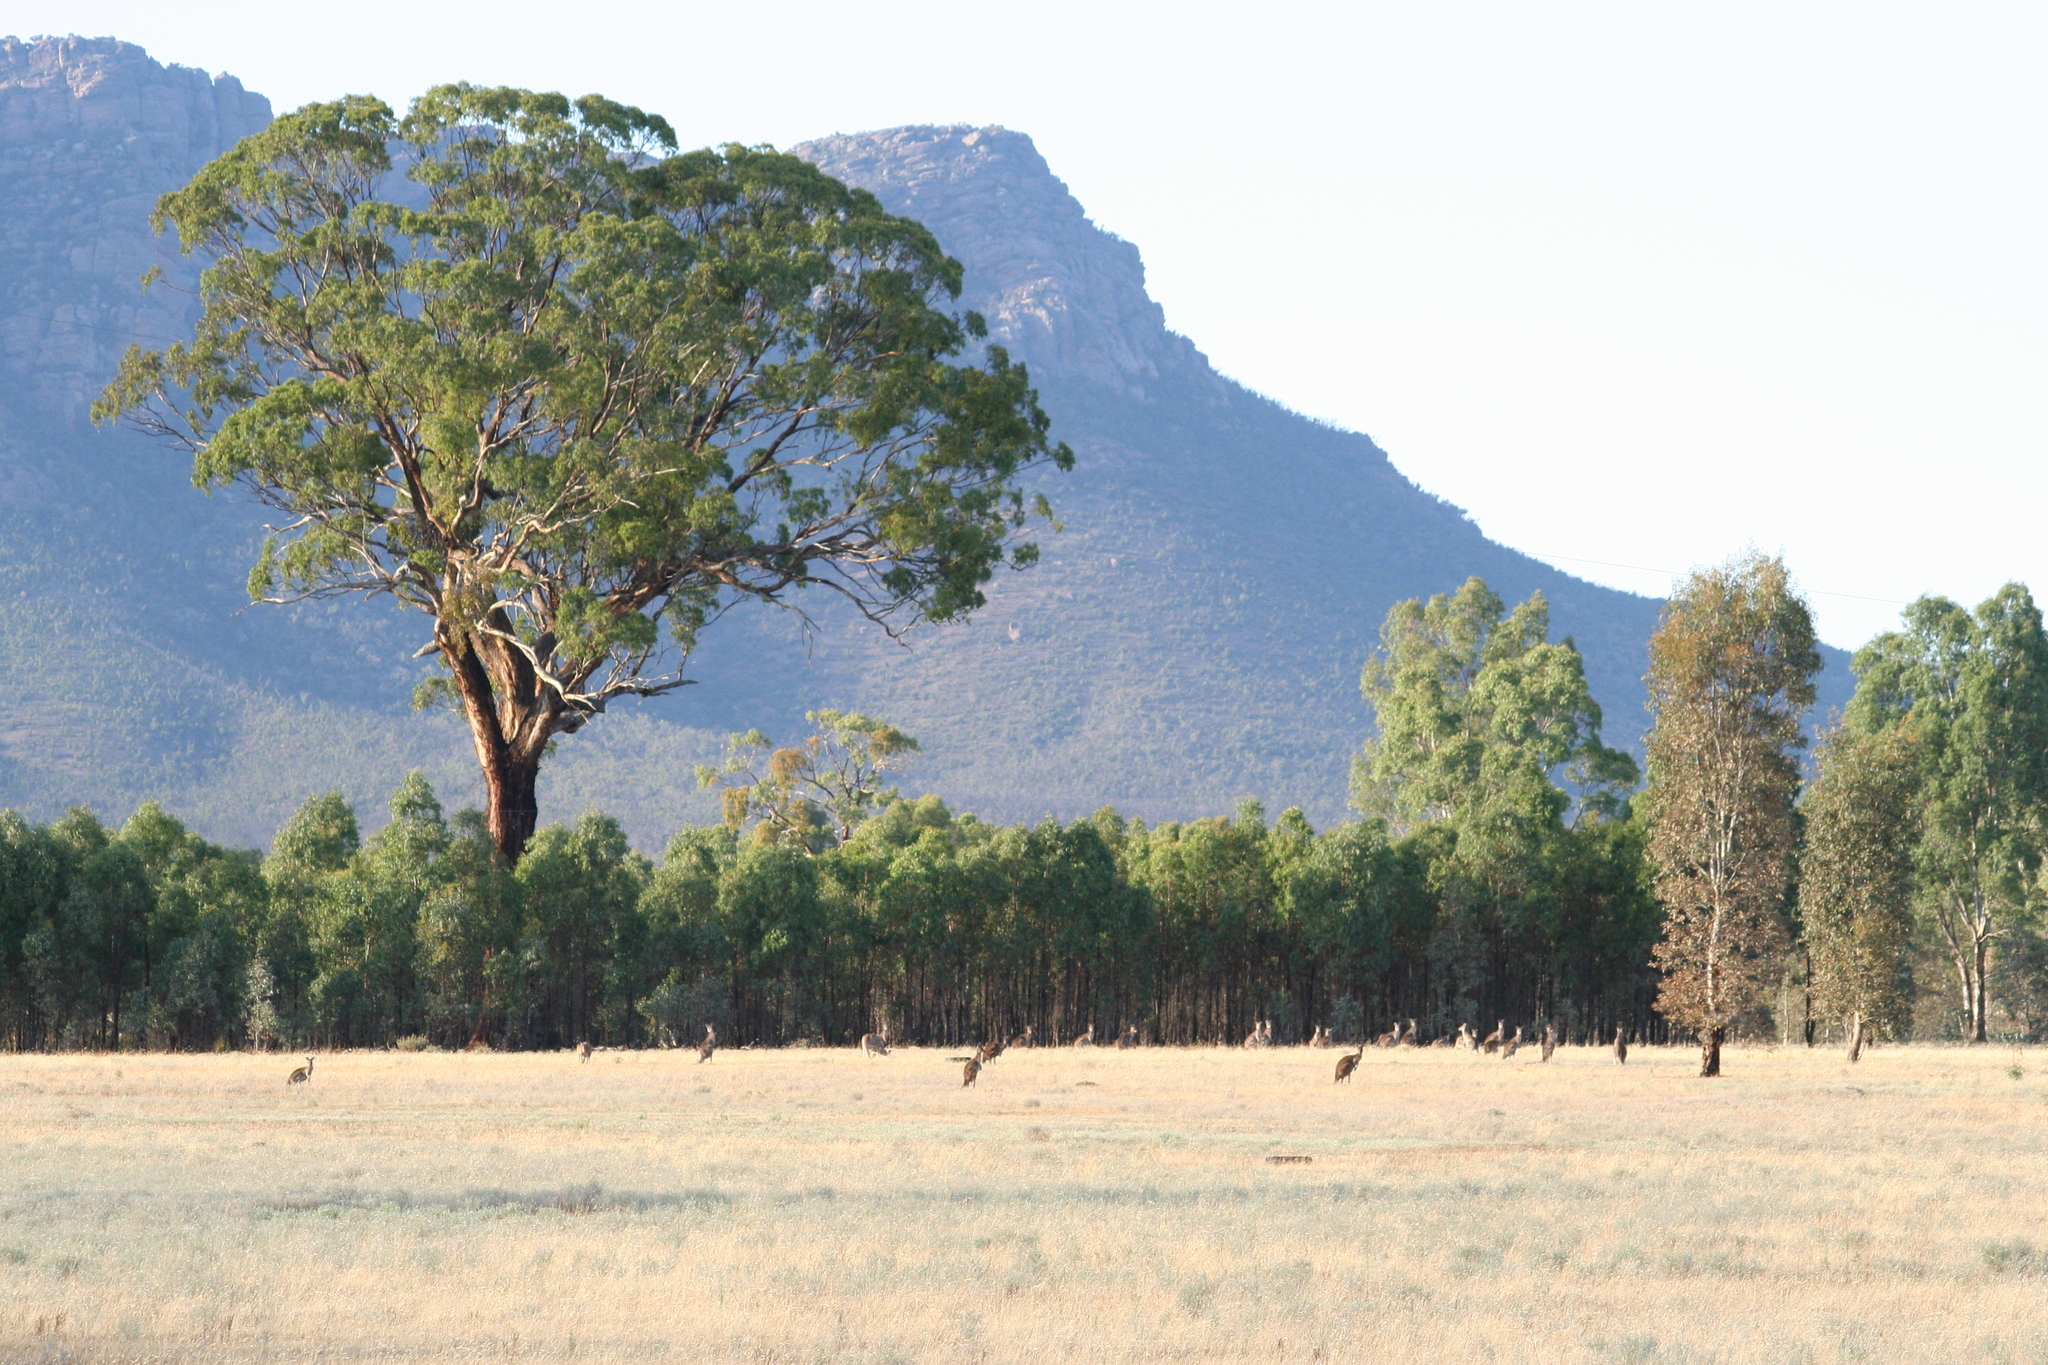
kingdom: Plantae
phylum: Tracheophyta
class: Magnoliopsida
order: Myrtales
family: Myrtaceae
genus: Eucalyptus
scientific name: Eucalyptus camaldulensis
